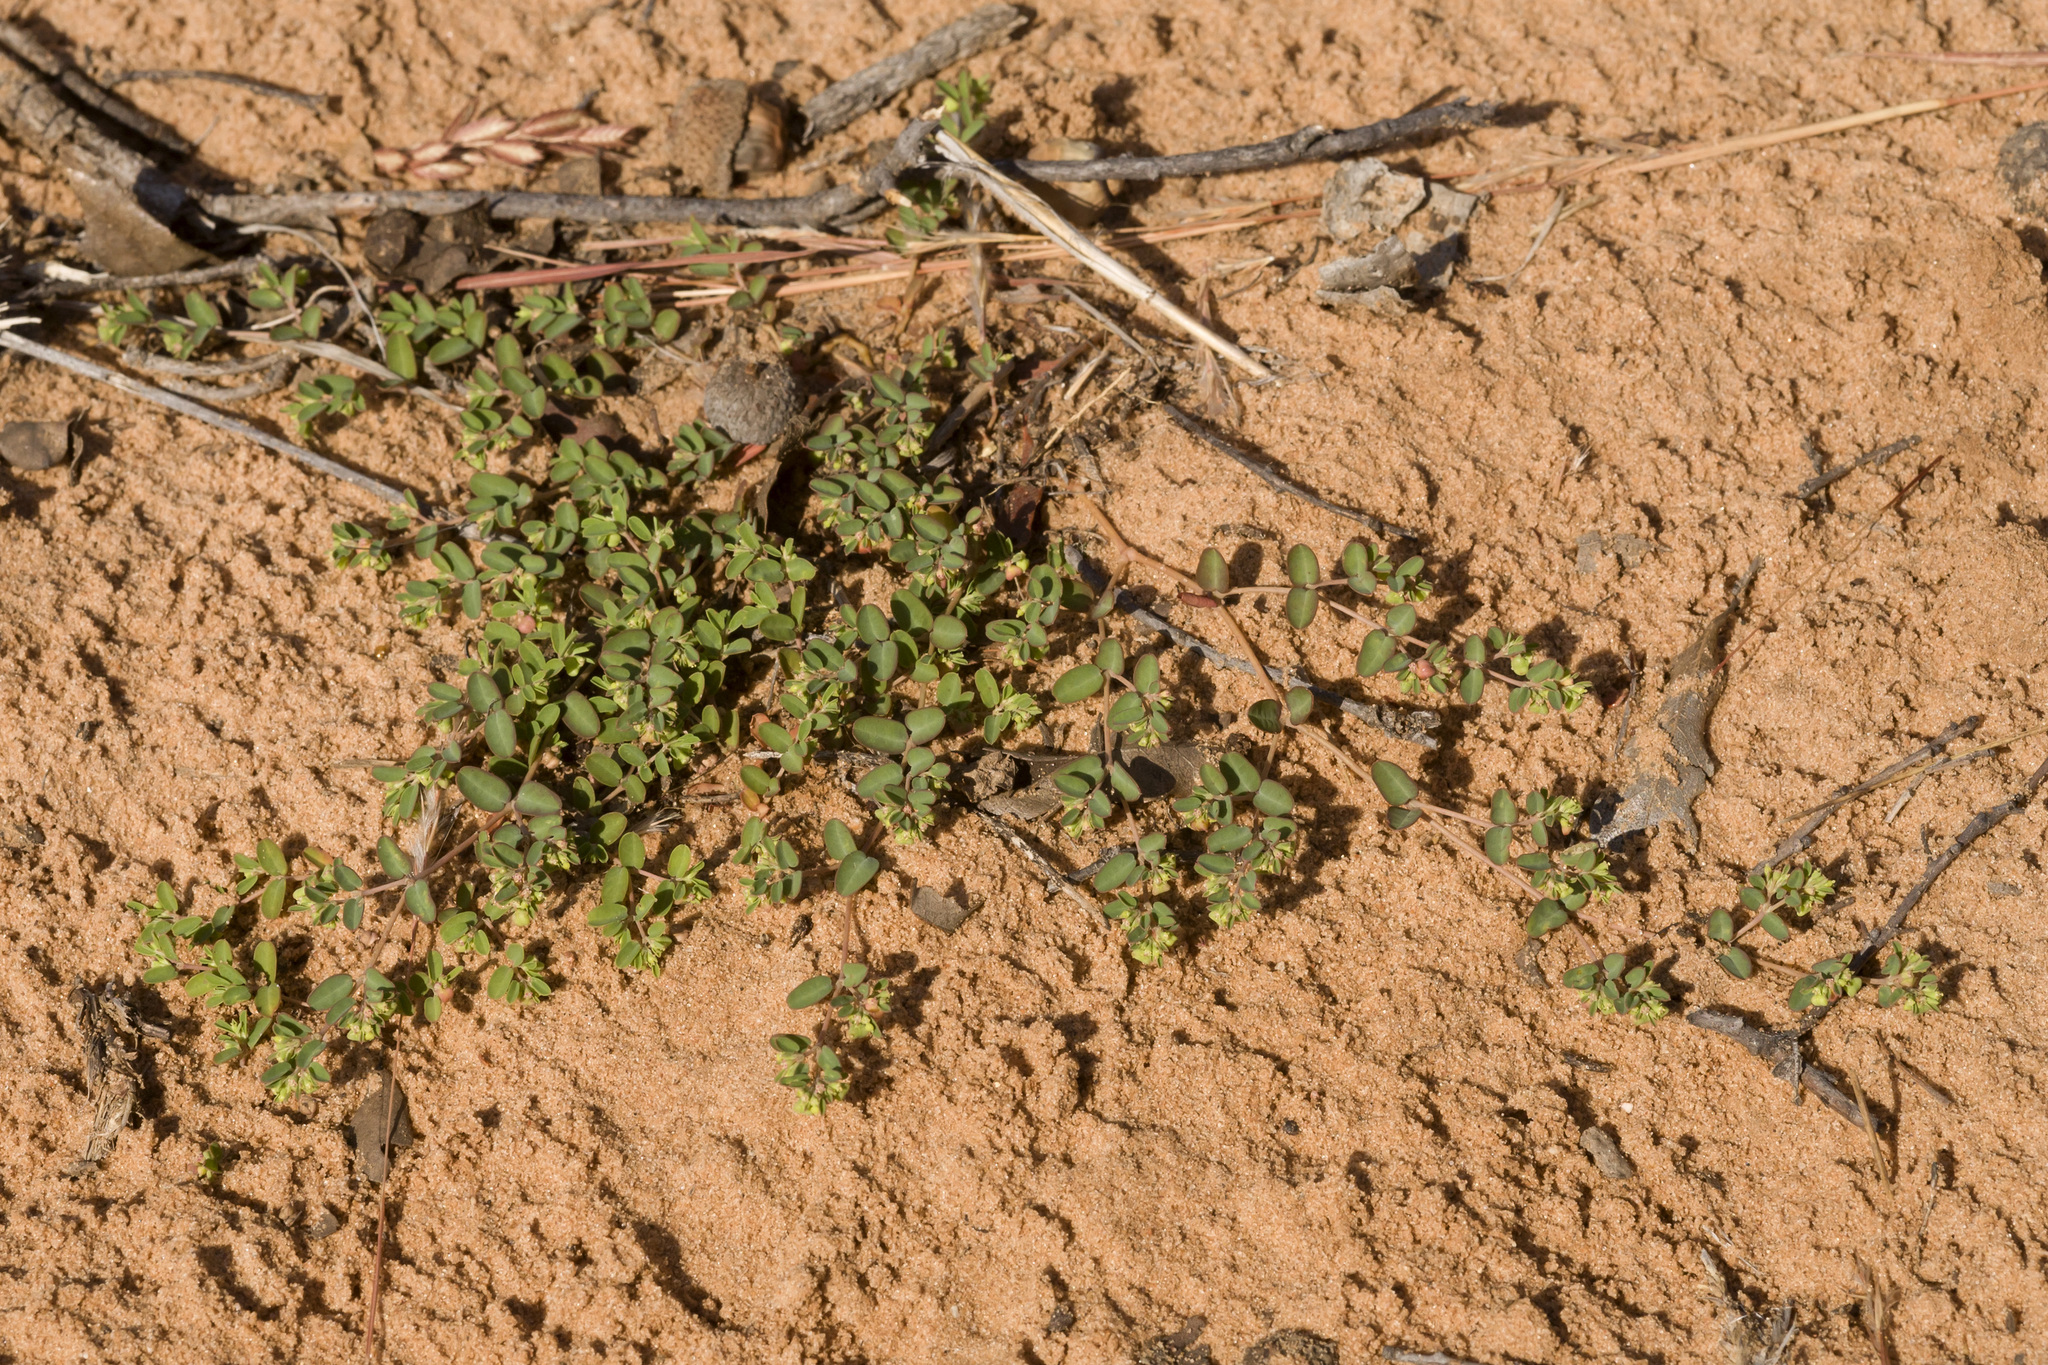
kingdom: Plantae
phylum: Tracheophyta
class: Magnoliopsida
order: Malpighiales
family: Euphorbiaceae
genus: Euphorbia
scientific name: Euphorbia geyeri
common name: Geyer's spurge
